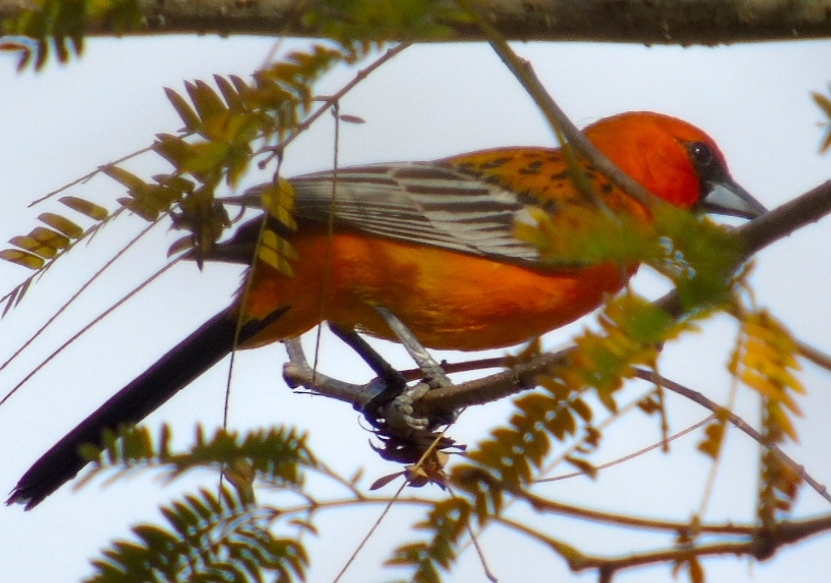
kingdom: Animalia
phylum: Chordata
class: Aves
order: Passeriformes
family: Icteridae
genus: Icterus
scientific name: Icterus pustulatus
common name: Streak-backed oriole
